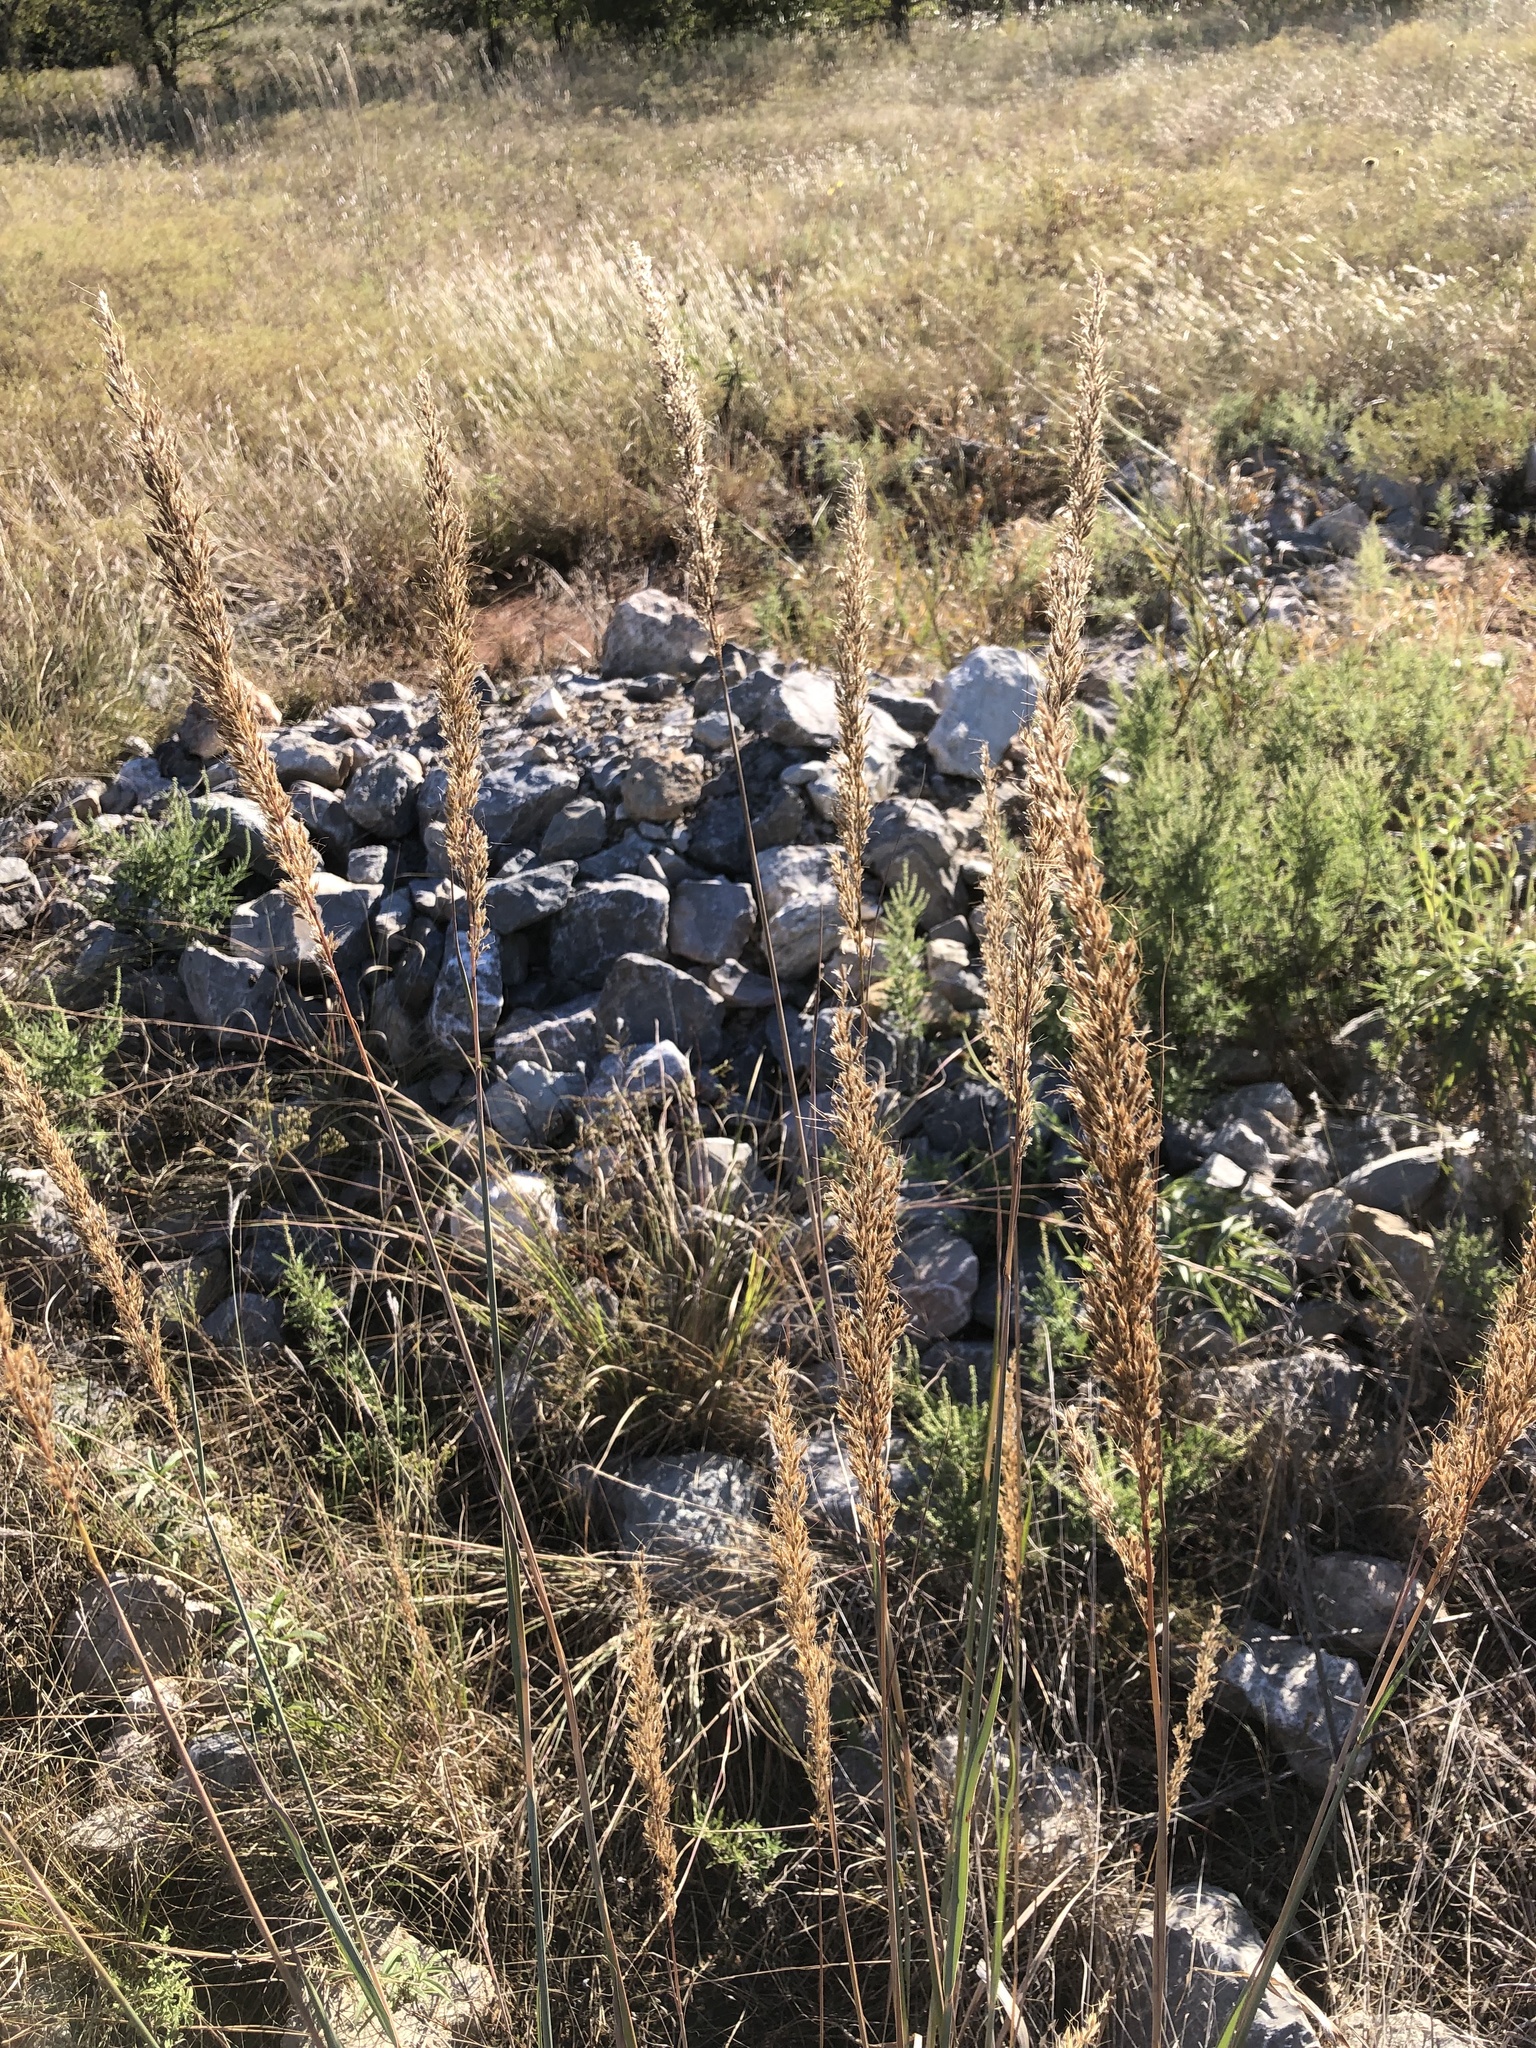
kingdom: Plantae
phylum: Tracheophyta
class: Liliopsida
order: Poales
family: Poaceae
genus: Sorghastrum
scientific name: Sorghastrum nutans
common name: Indian grass
